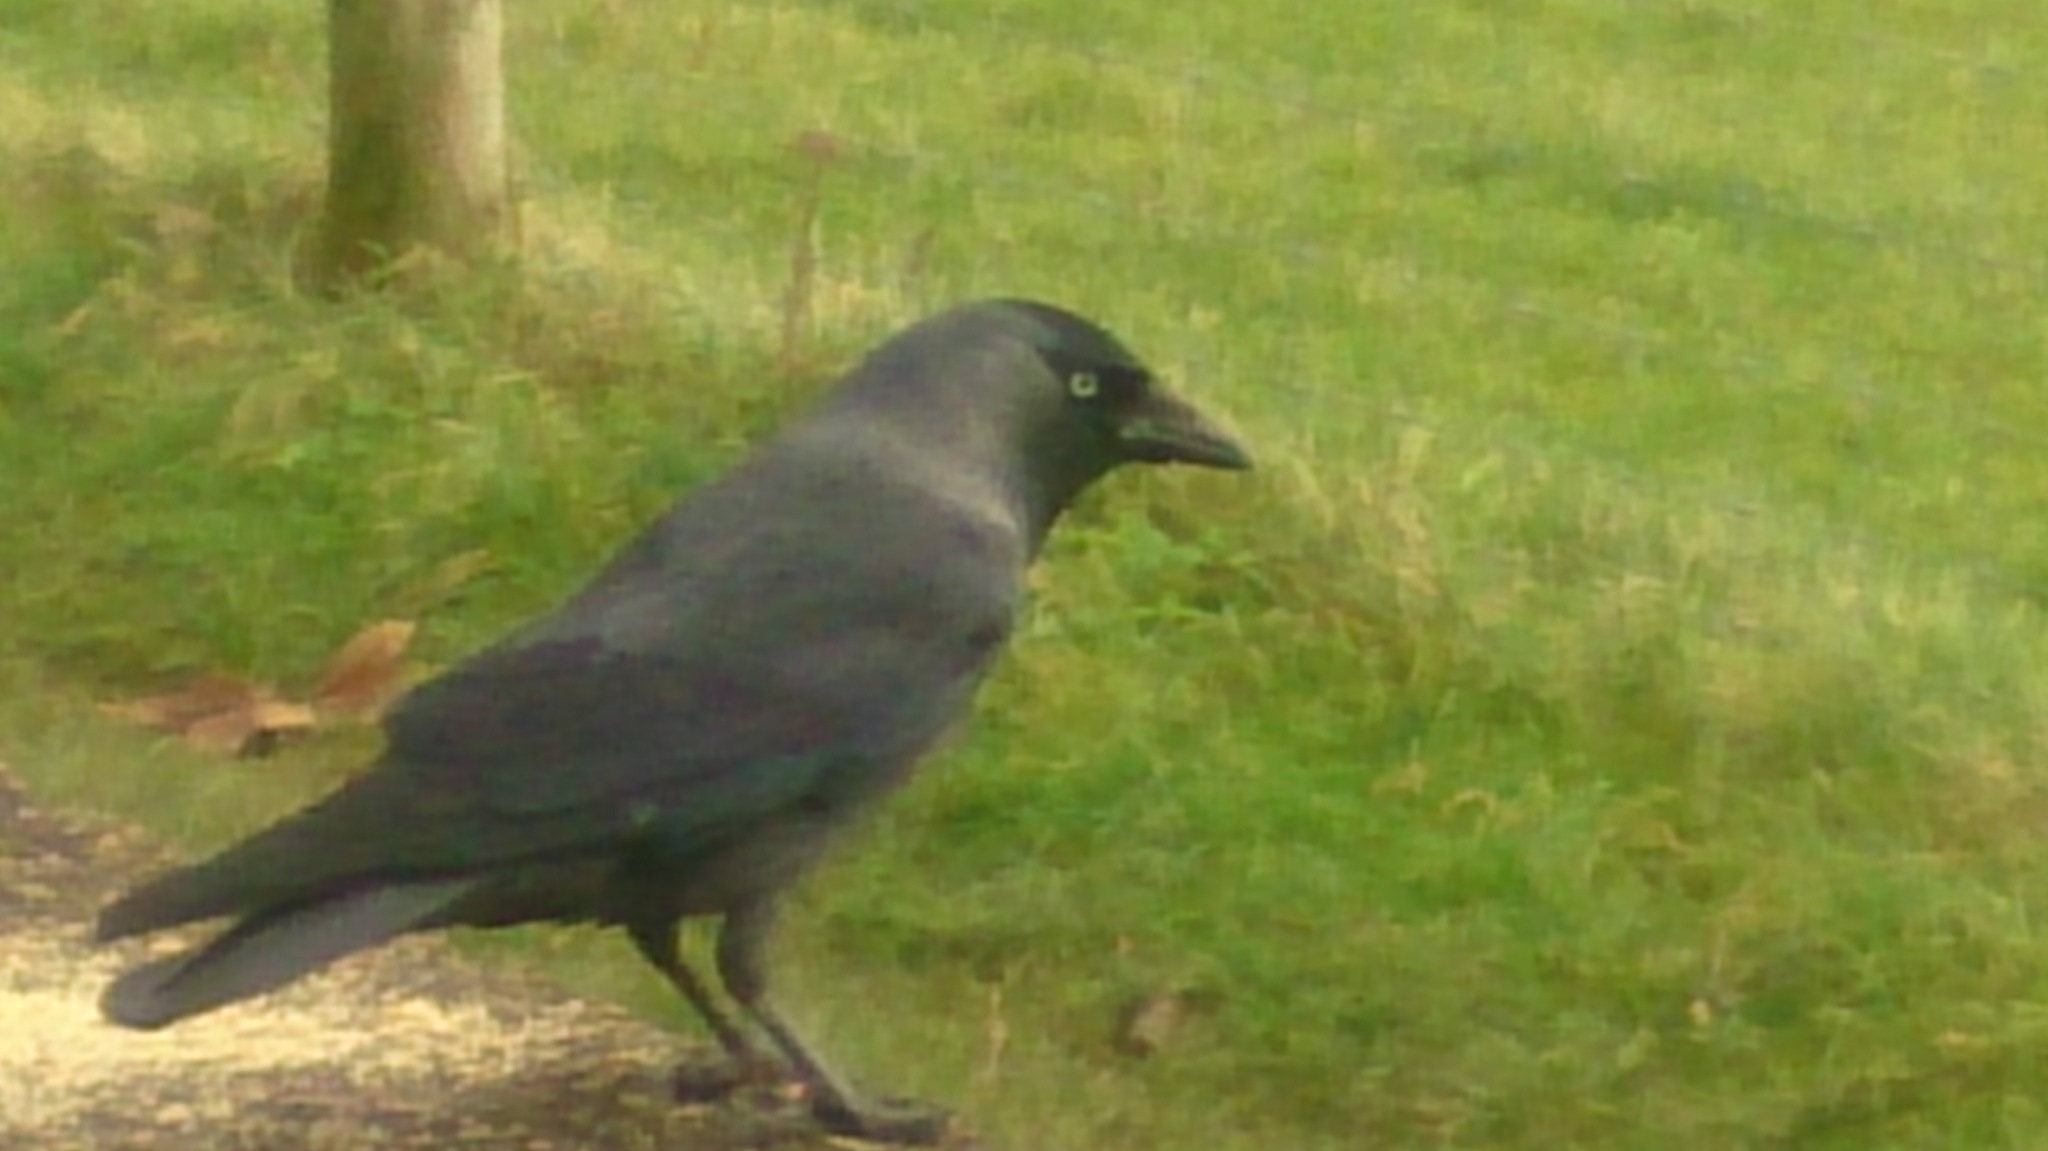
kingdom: Animalia
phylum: Chordata
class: Aves
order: Passeriformes
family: Corvidae
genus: Coloeus
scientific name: Coloeus monedula
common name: Western jackdaw
